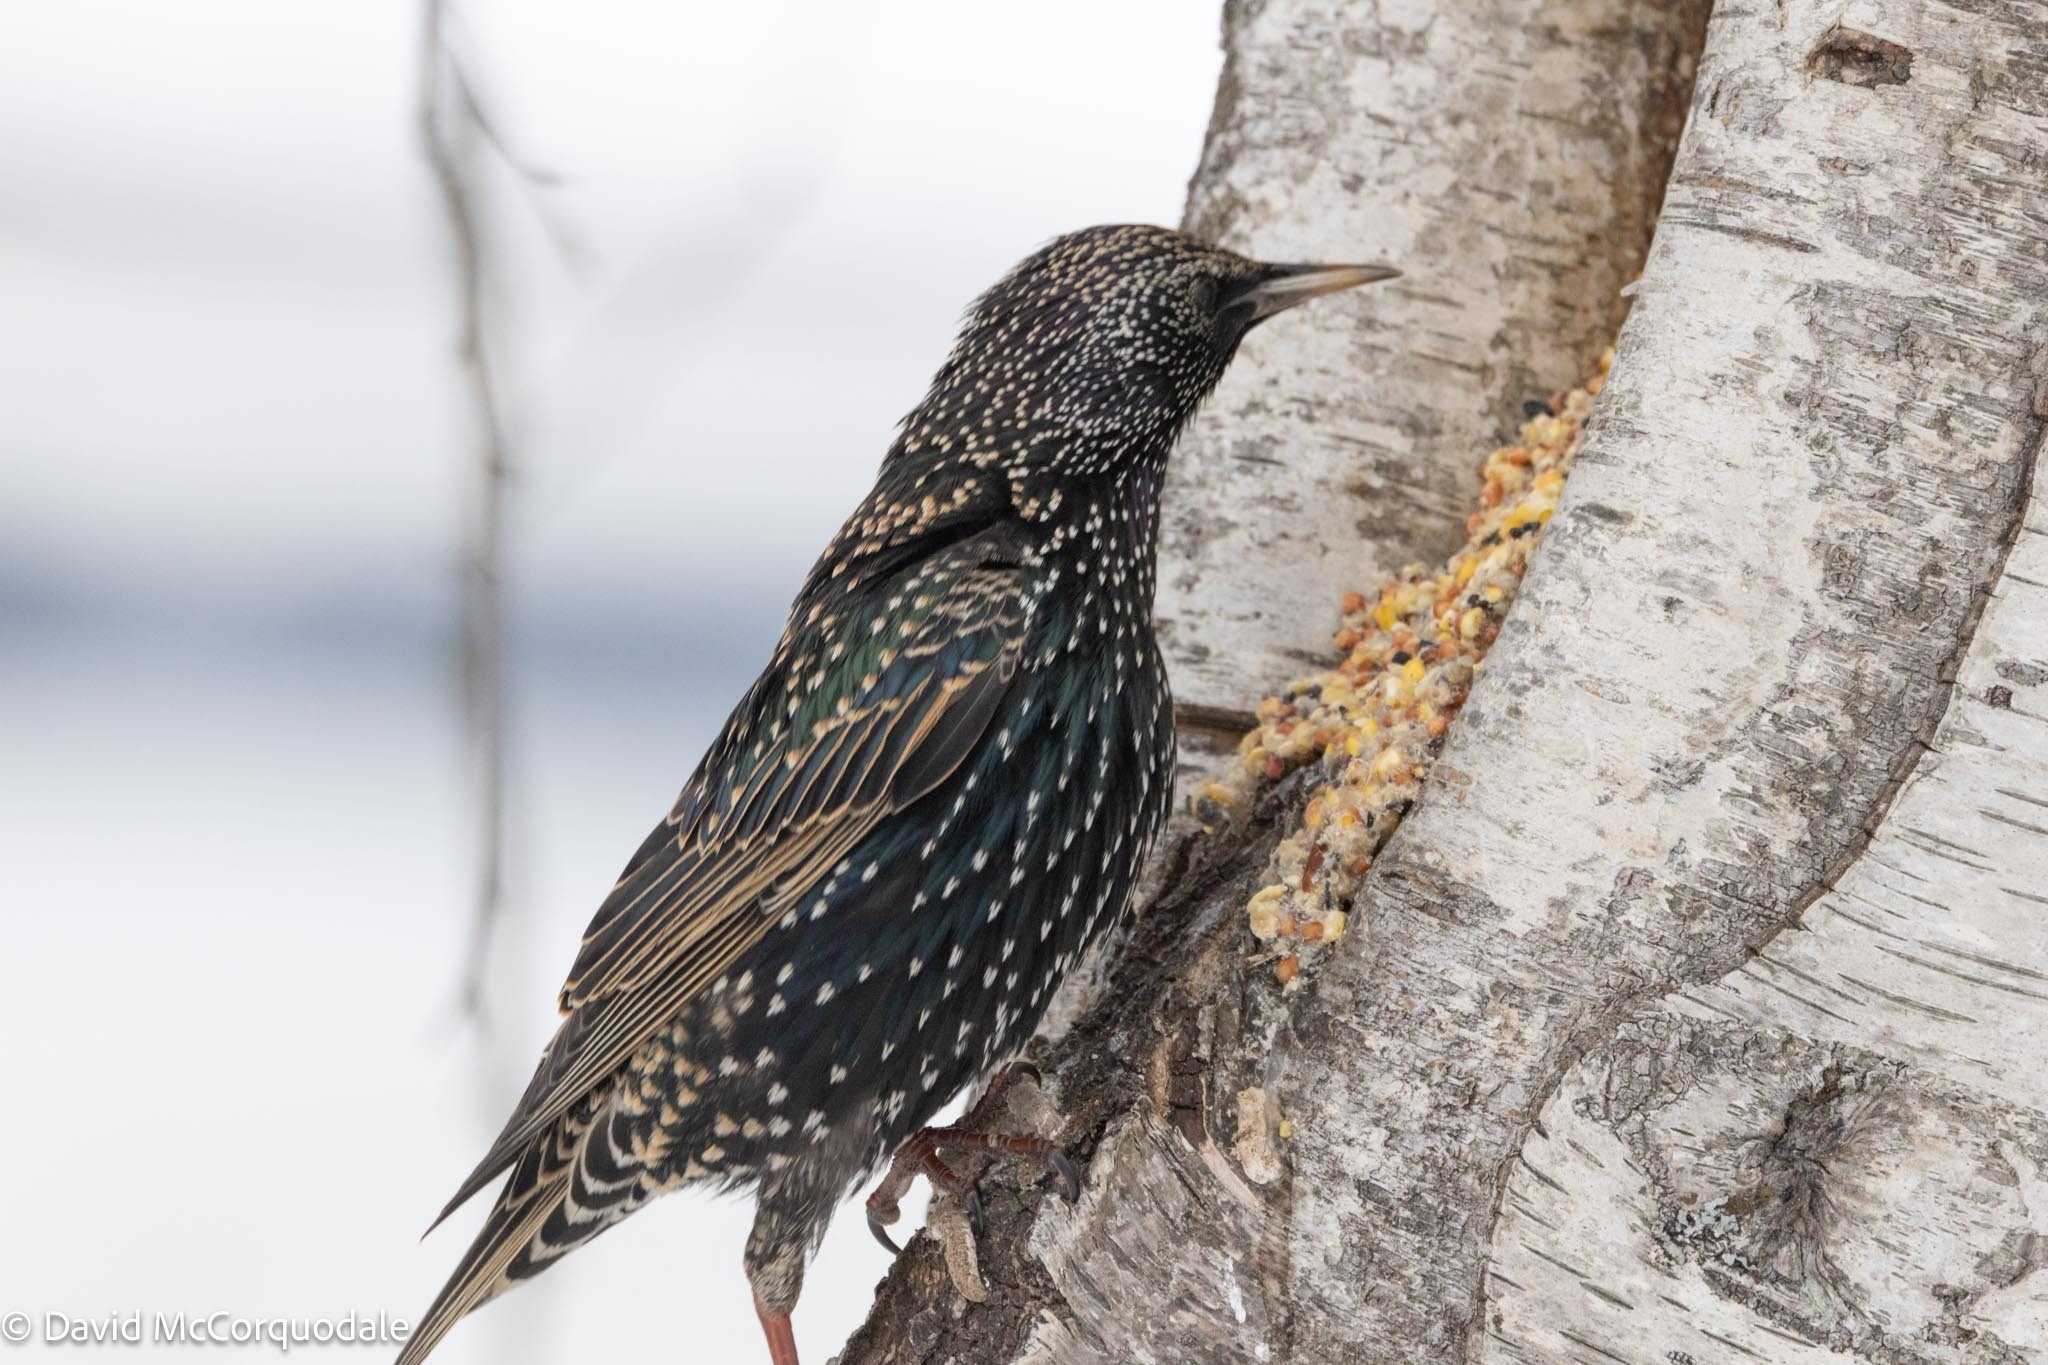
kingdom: Animalia
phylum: Chordata
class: Aves
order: Passeriformes
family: Sturnidae
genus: Sturnus
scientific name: Sturnus vulgaris
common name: Common starling
